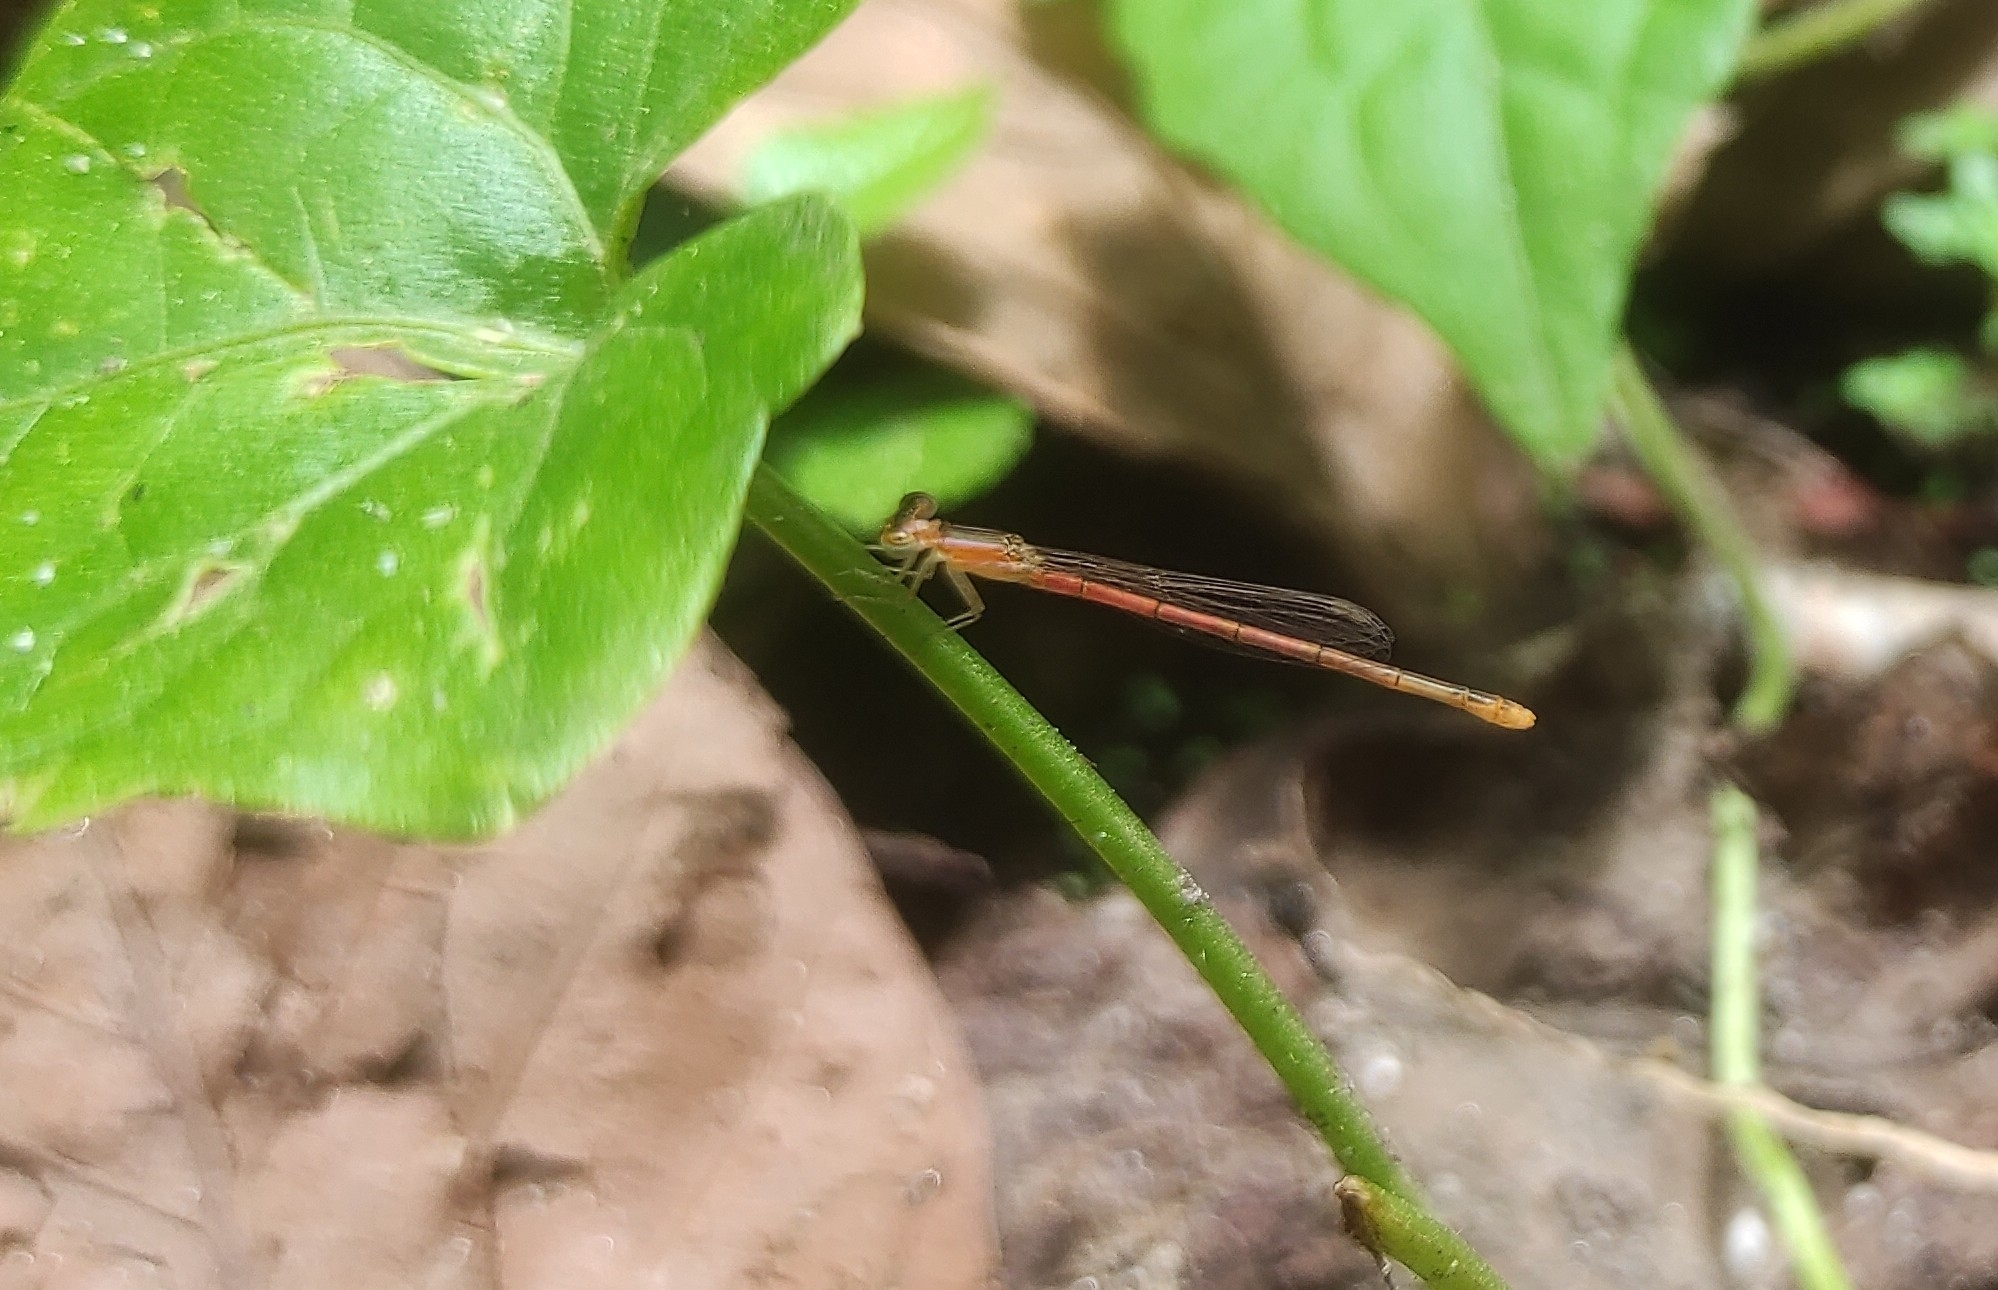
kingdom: Animalia
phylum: Arthropoda
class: Insecta
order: Odonata
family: Coenagrionidae
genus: Agriocnemis
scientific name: Agriocnemis pygmaea
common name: Pygmy wisp
